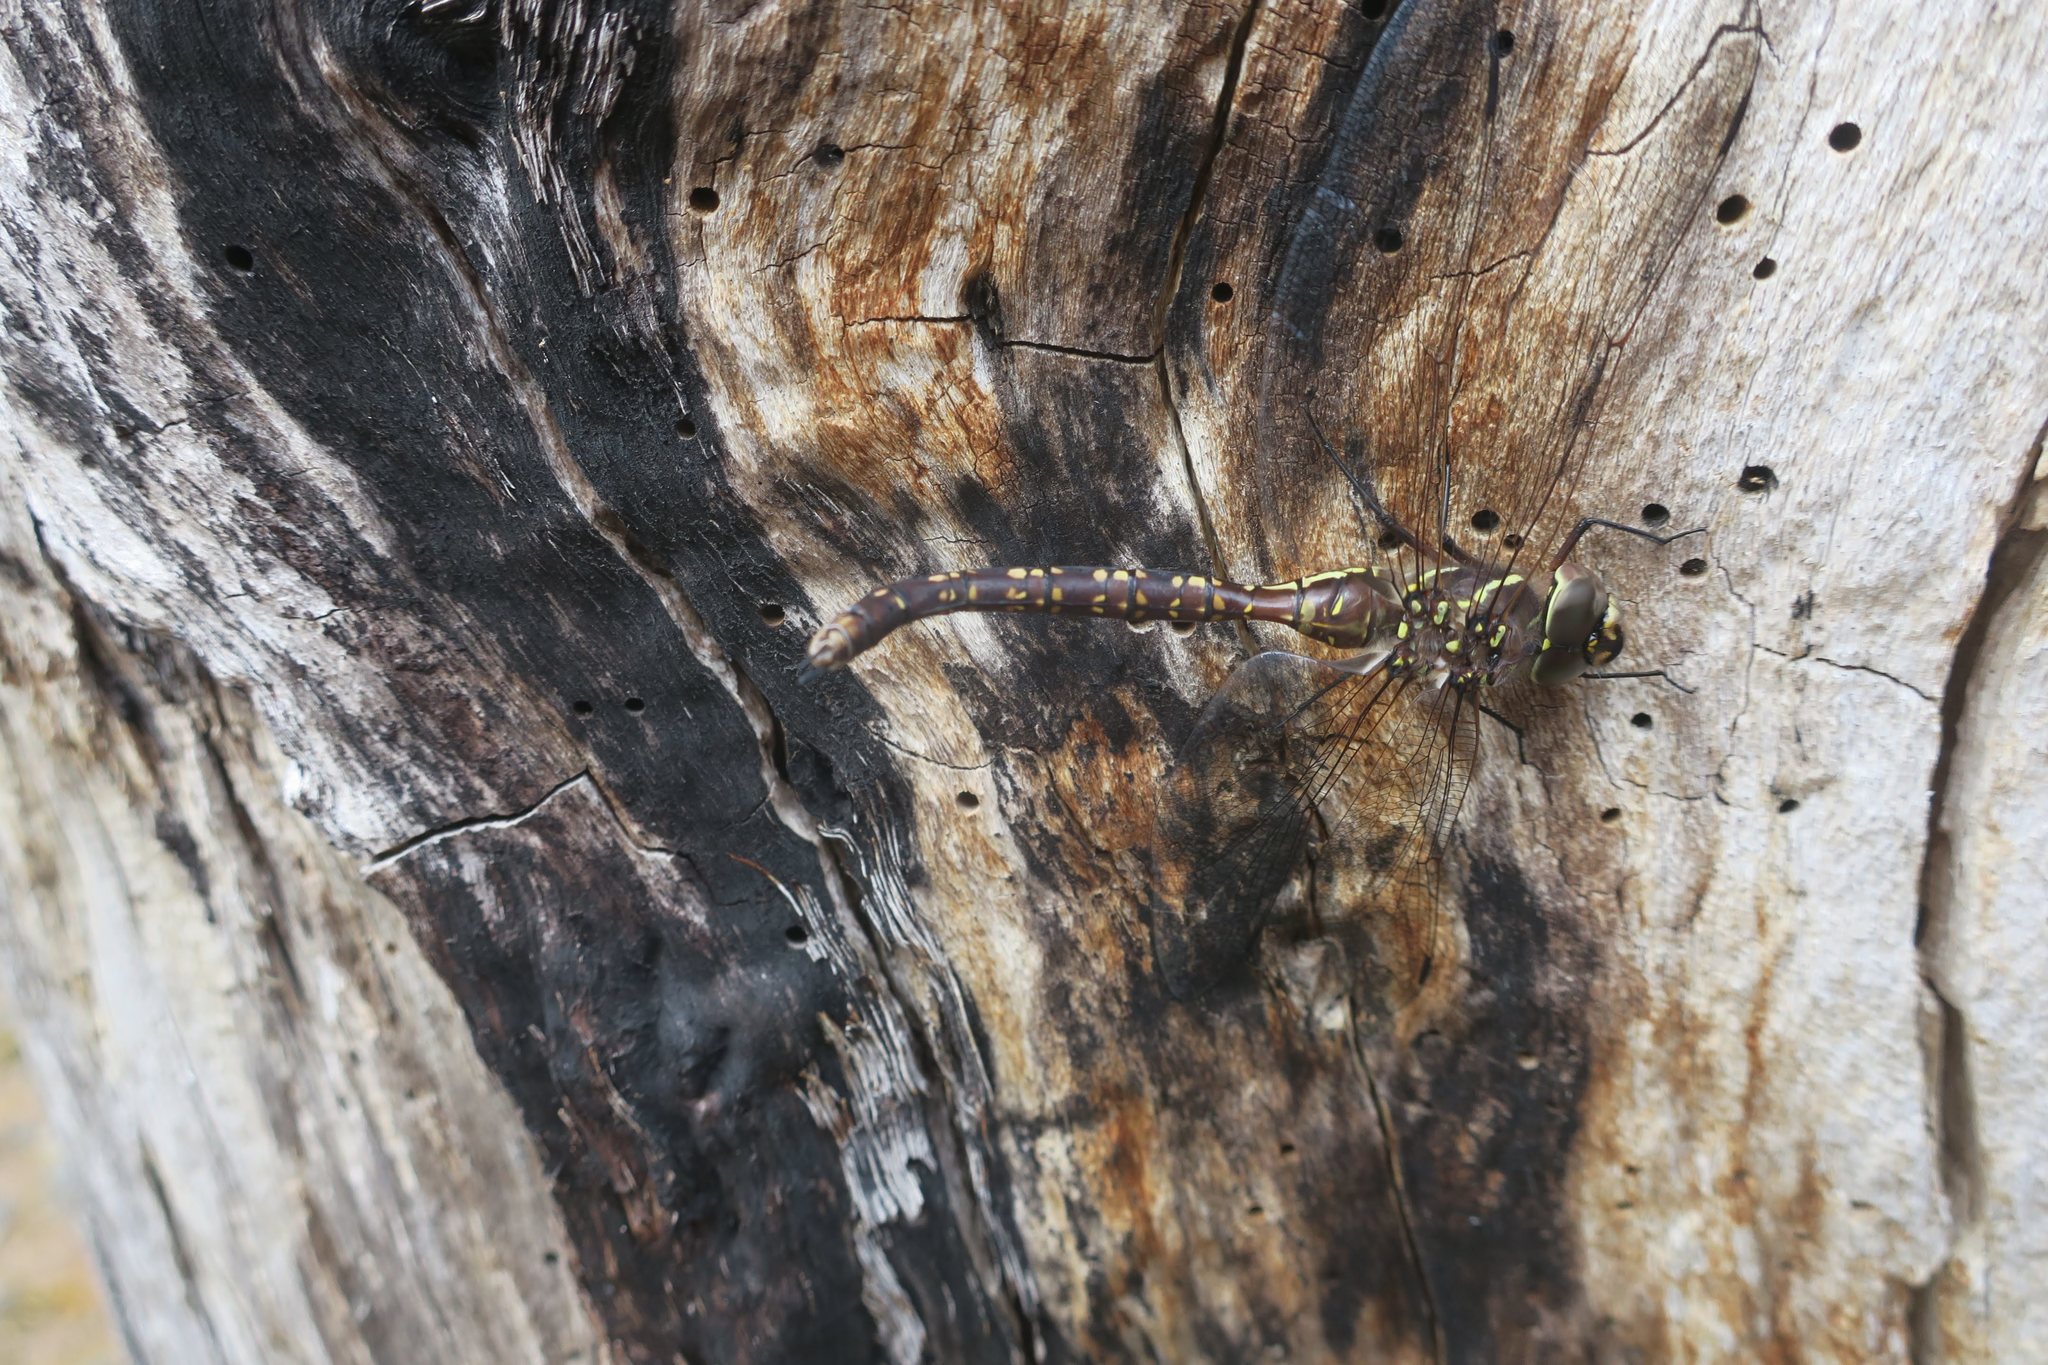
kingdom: Animalia
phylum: Arthropoda
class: Insecta
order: Odonata
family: Aeshnidae
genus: Aeshna
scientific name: Aeshna brevistyla
